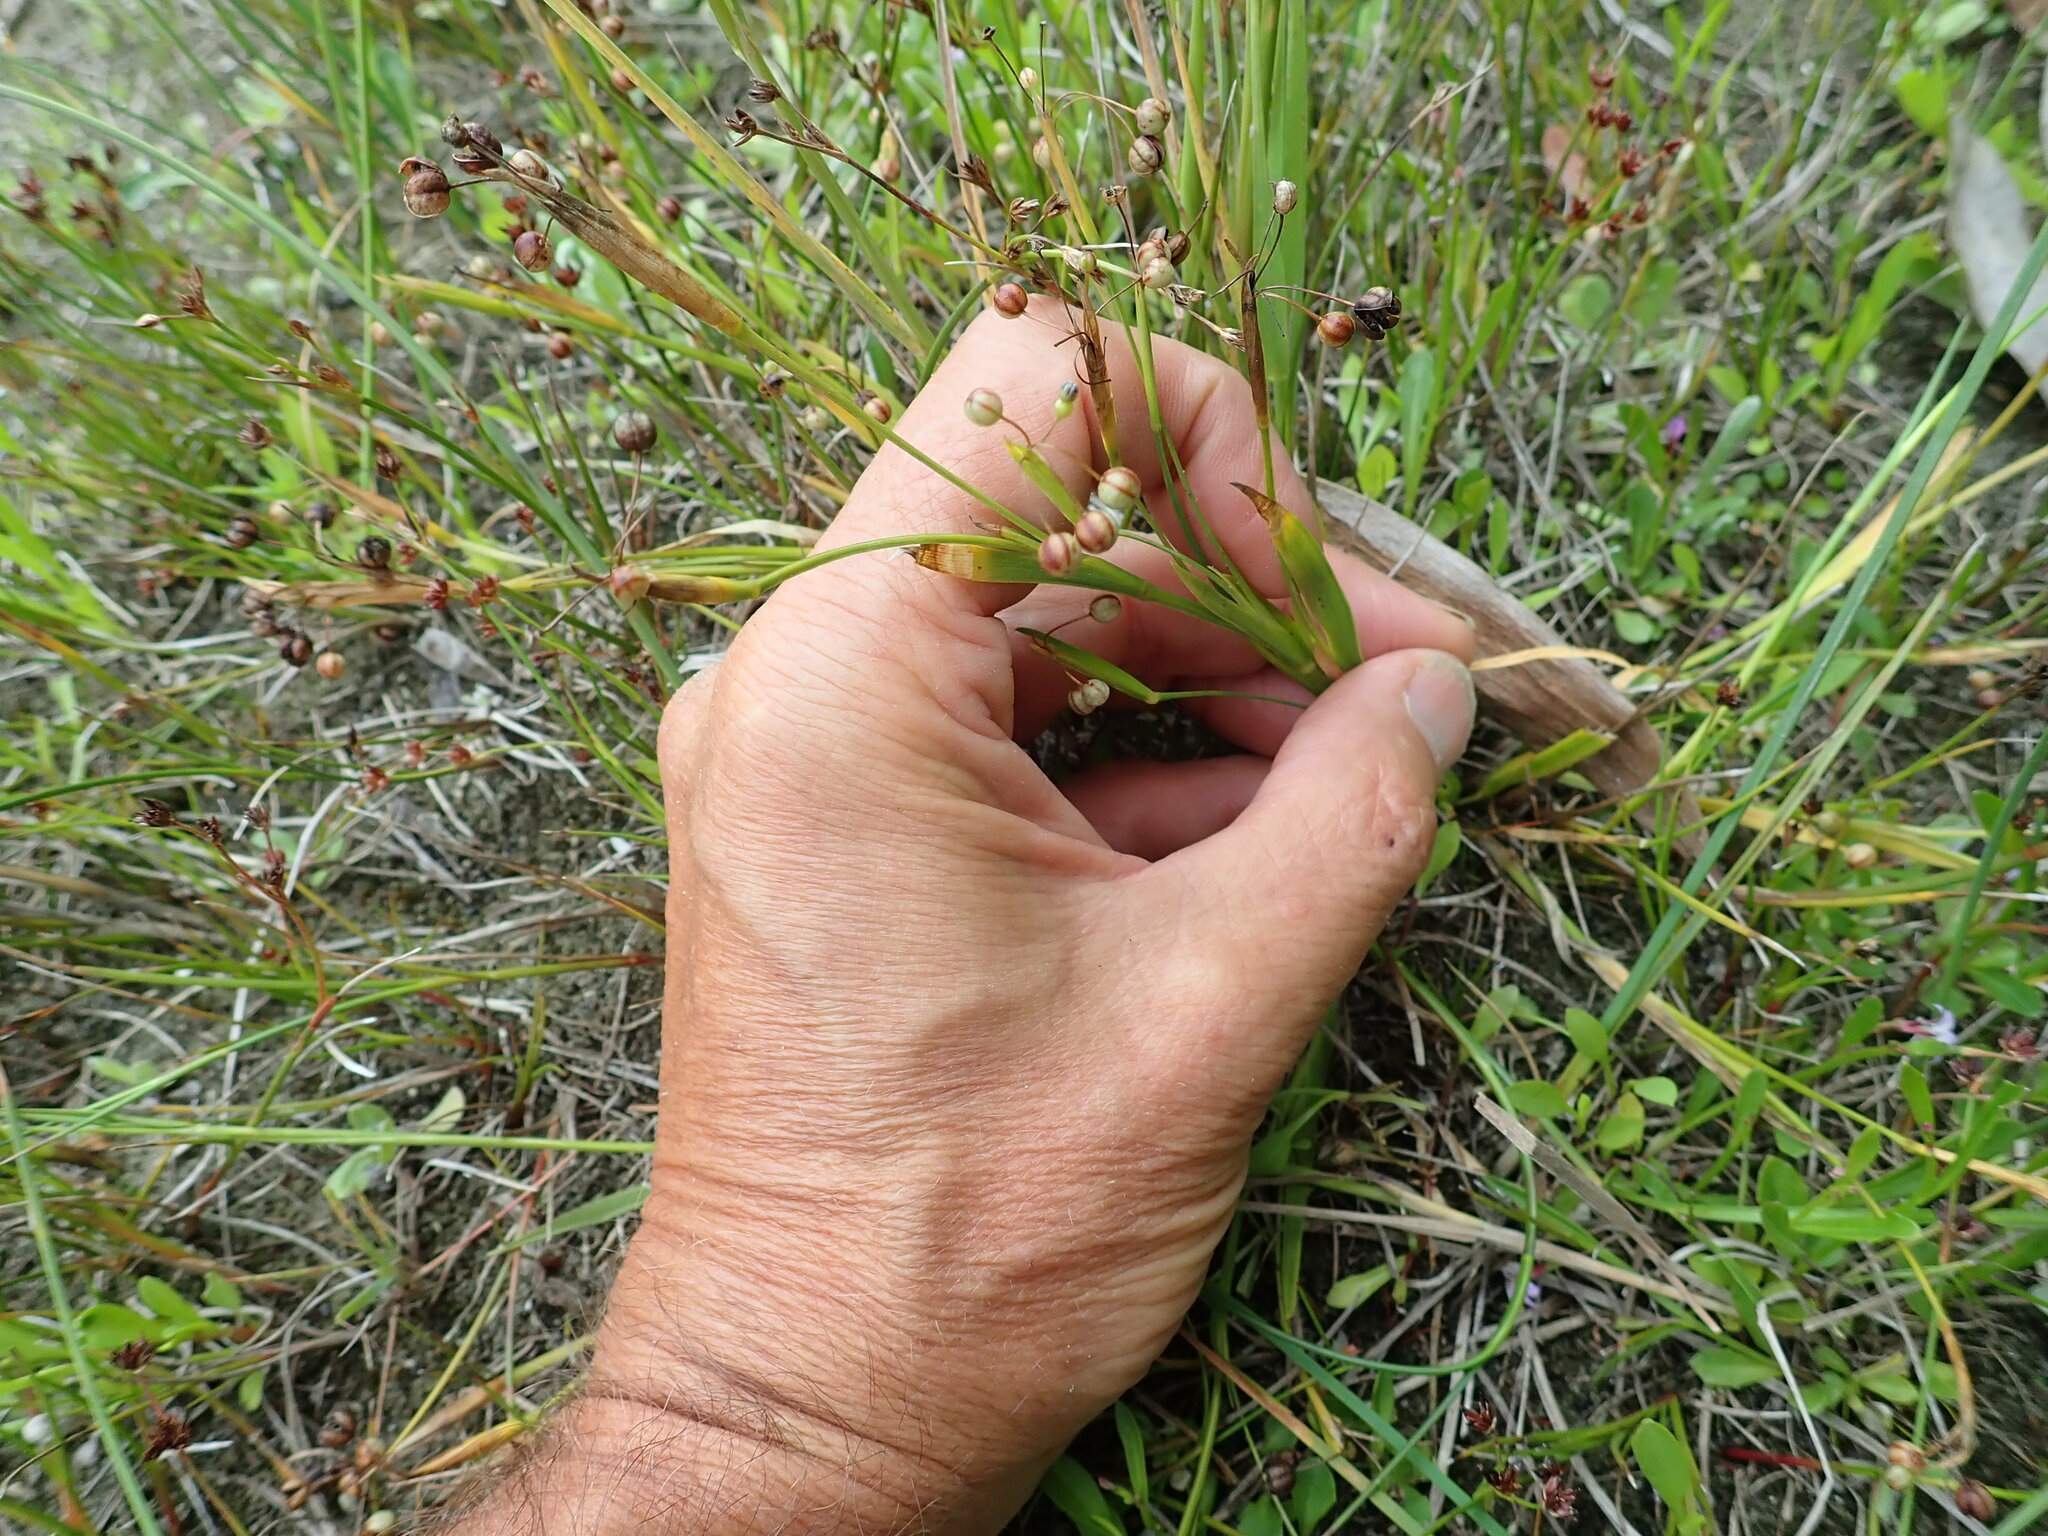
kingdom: Plantae
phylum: Tracheophyta
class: Liliopsida
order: Asparagales
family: Iridaceae
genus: Sisyrinchium
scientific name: Sisyrinchium micranthum
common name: Bermuda pigroot
